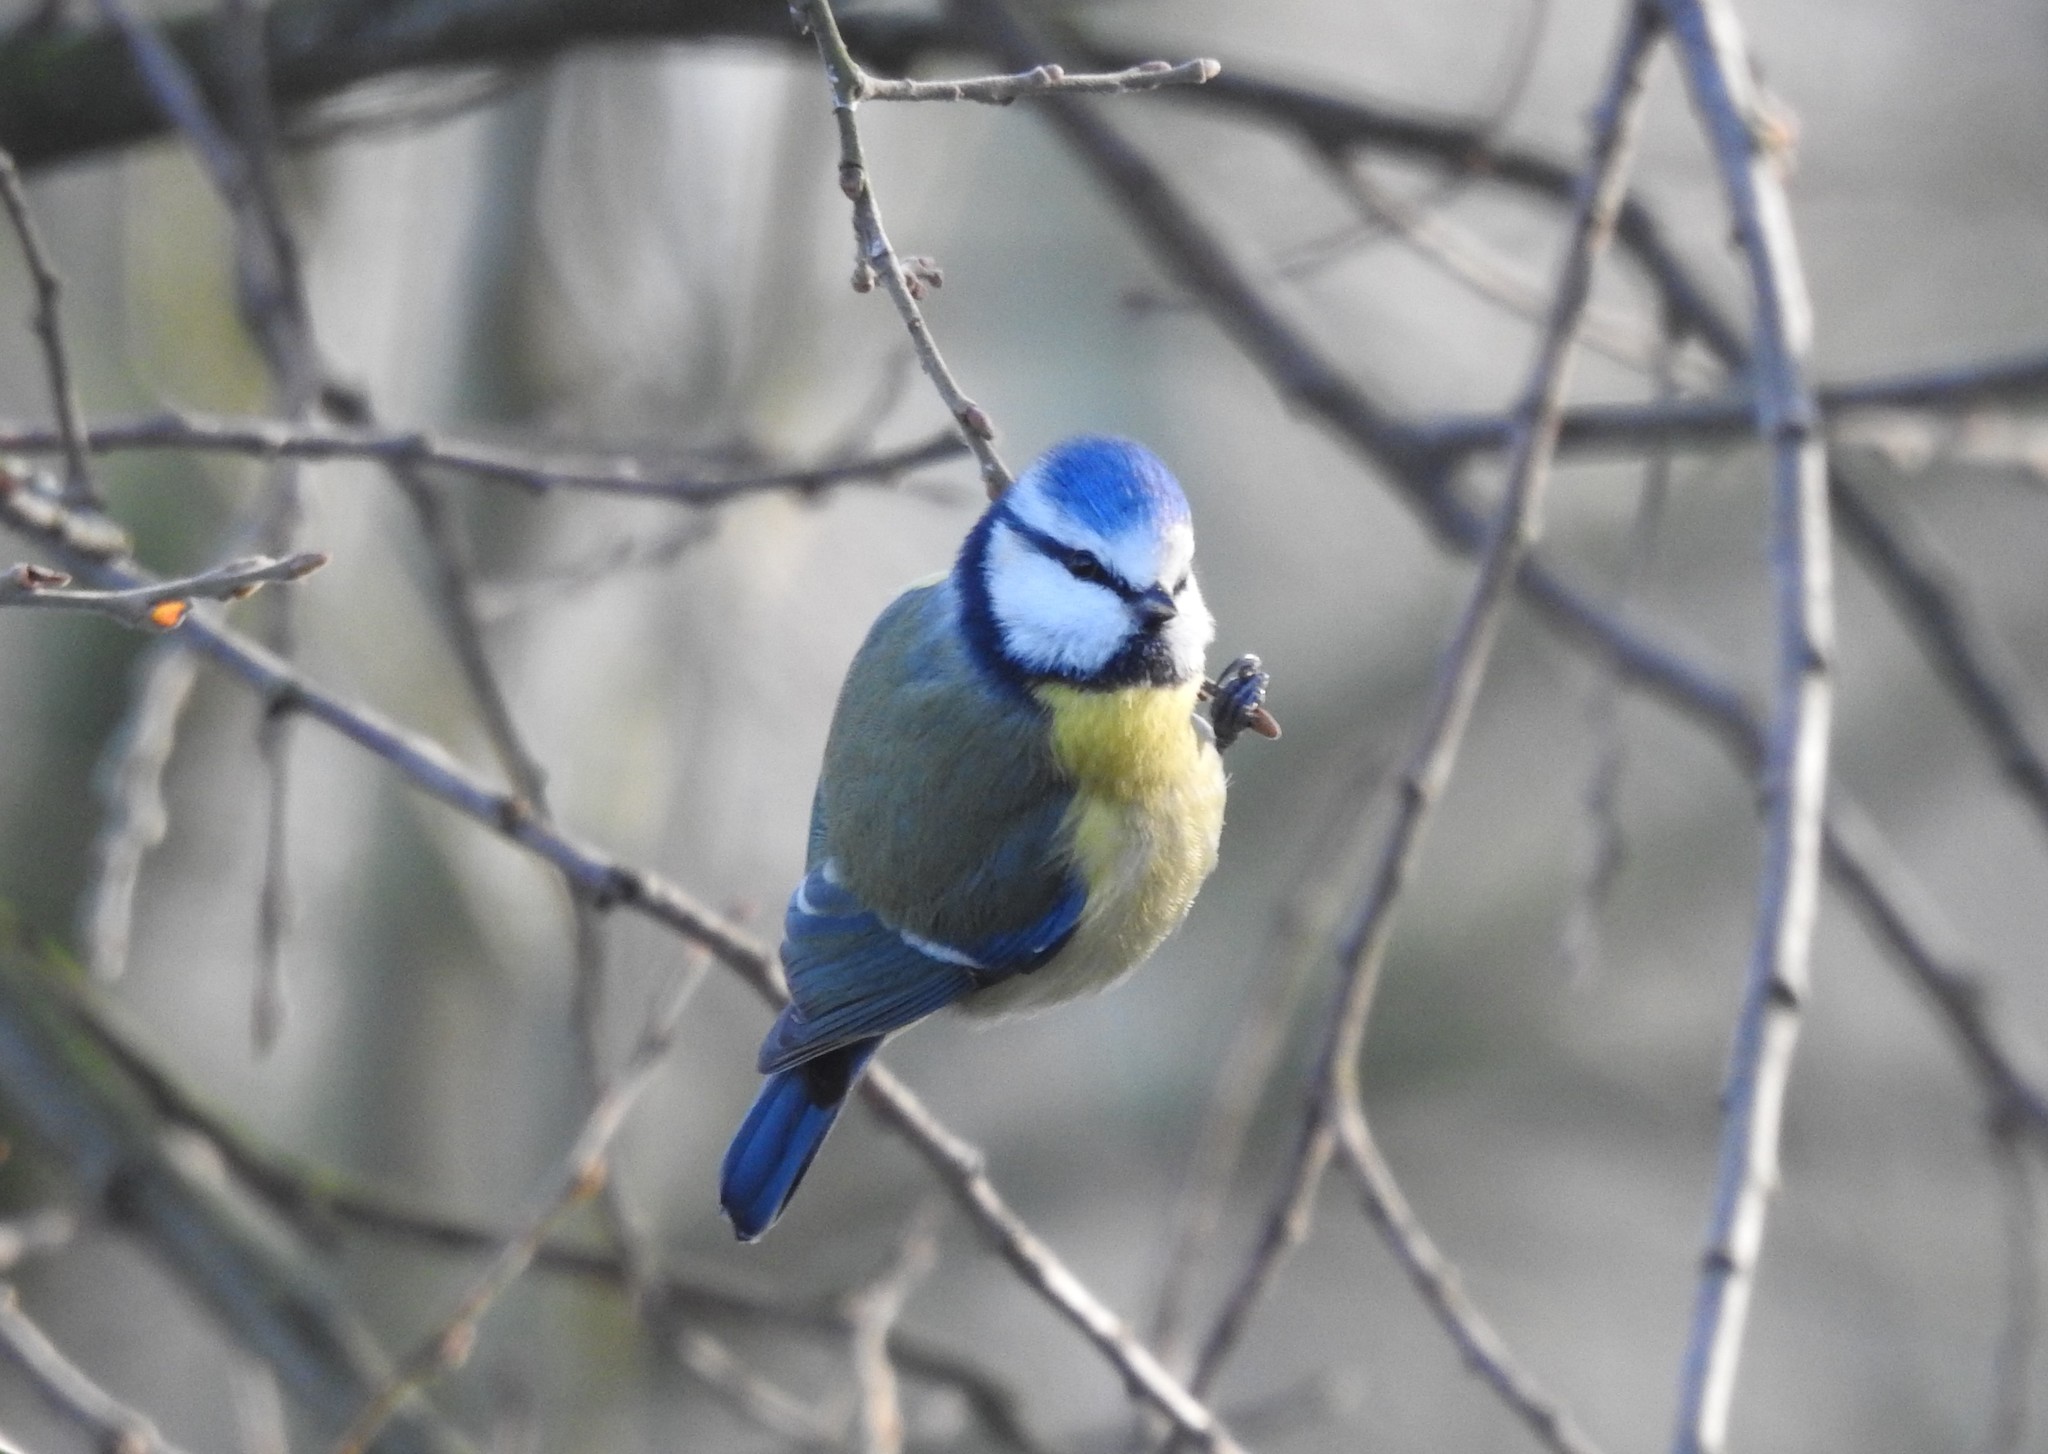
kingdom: Animalia
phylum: Chordata
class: Aves
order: Passeriformes
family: Paridae
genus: Cyanistes
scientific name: Cyanistes caeruleus
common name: Eurasian blue tit
